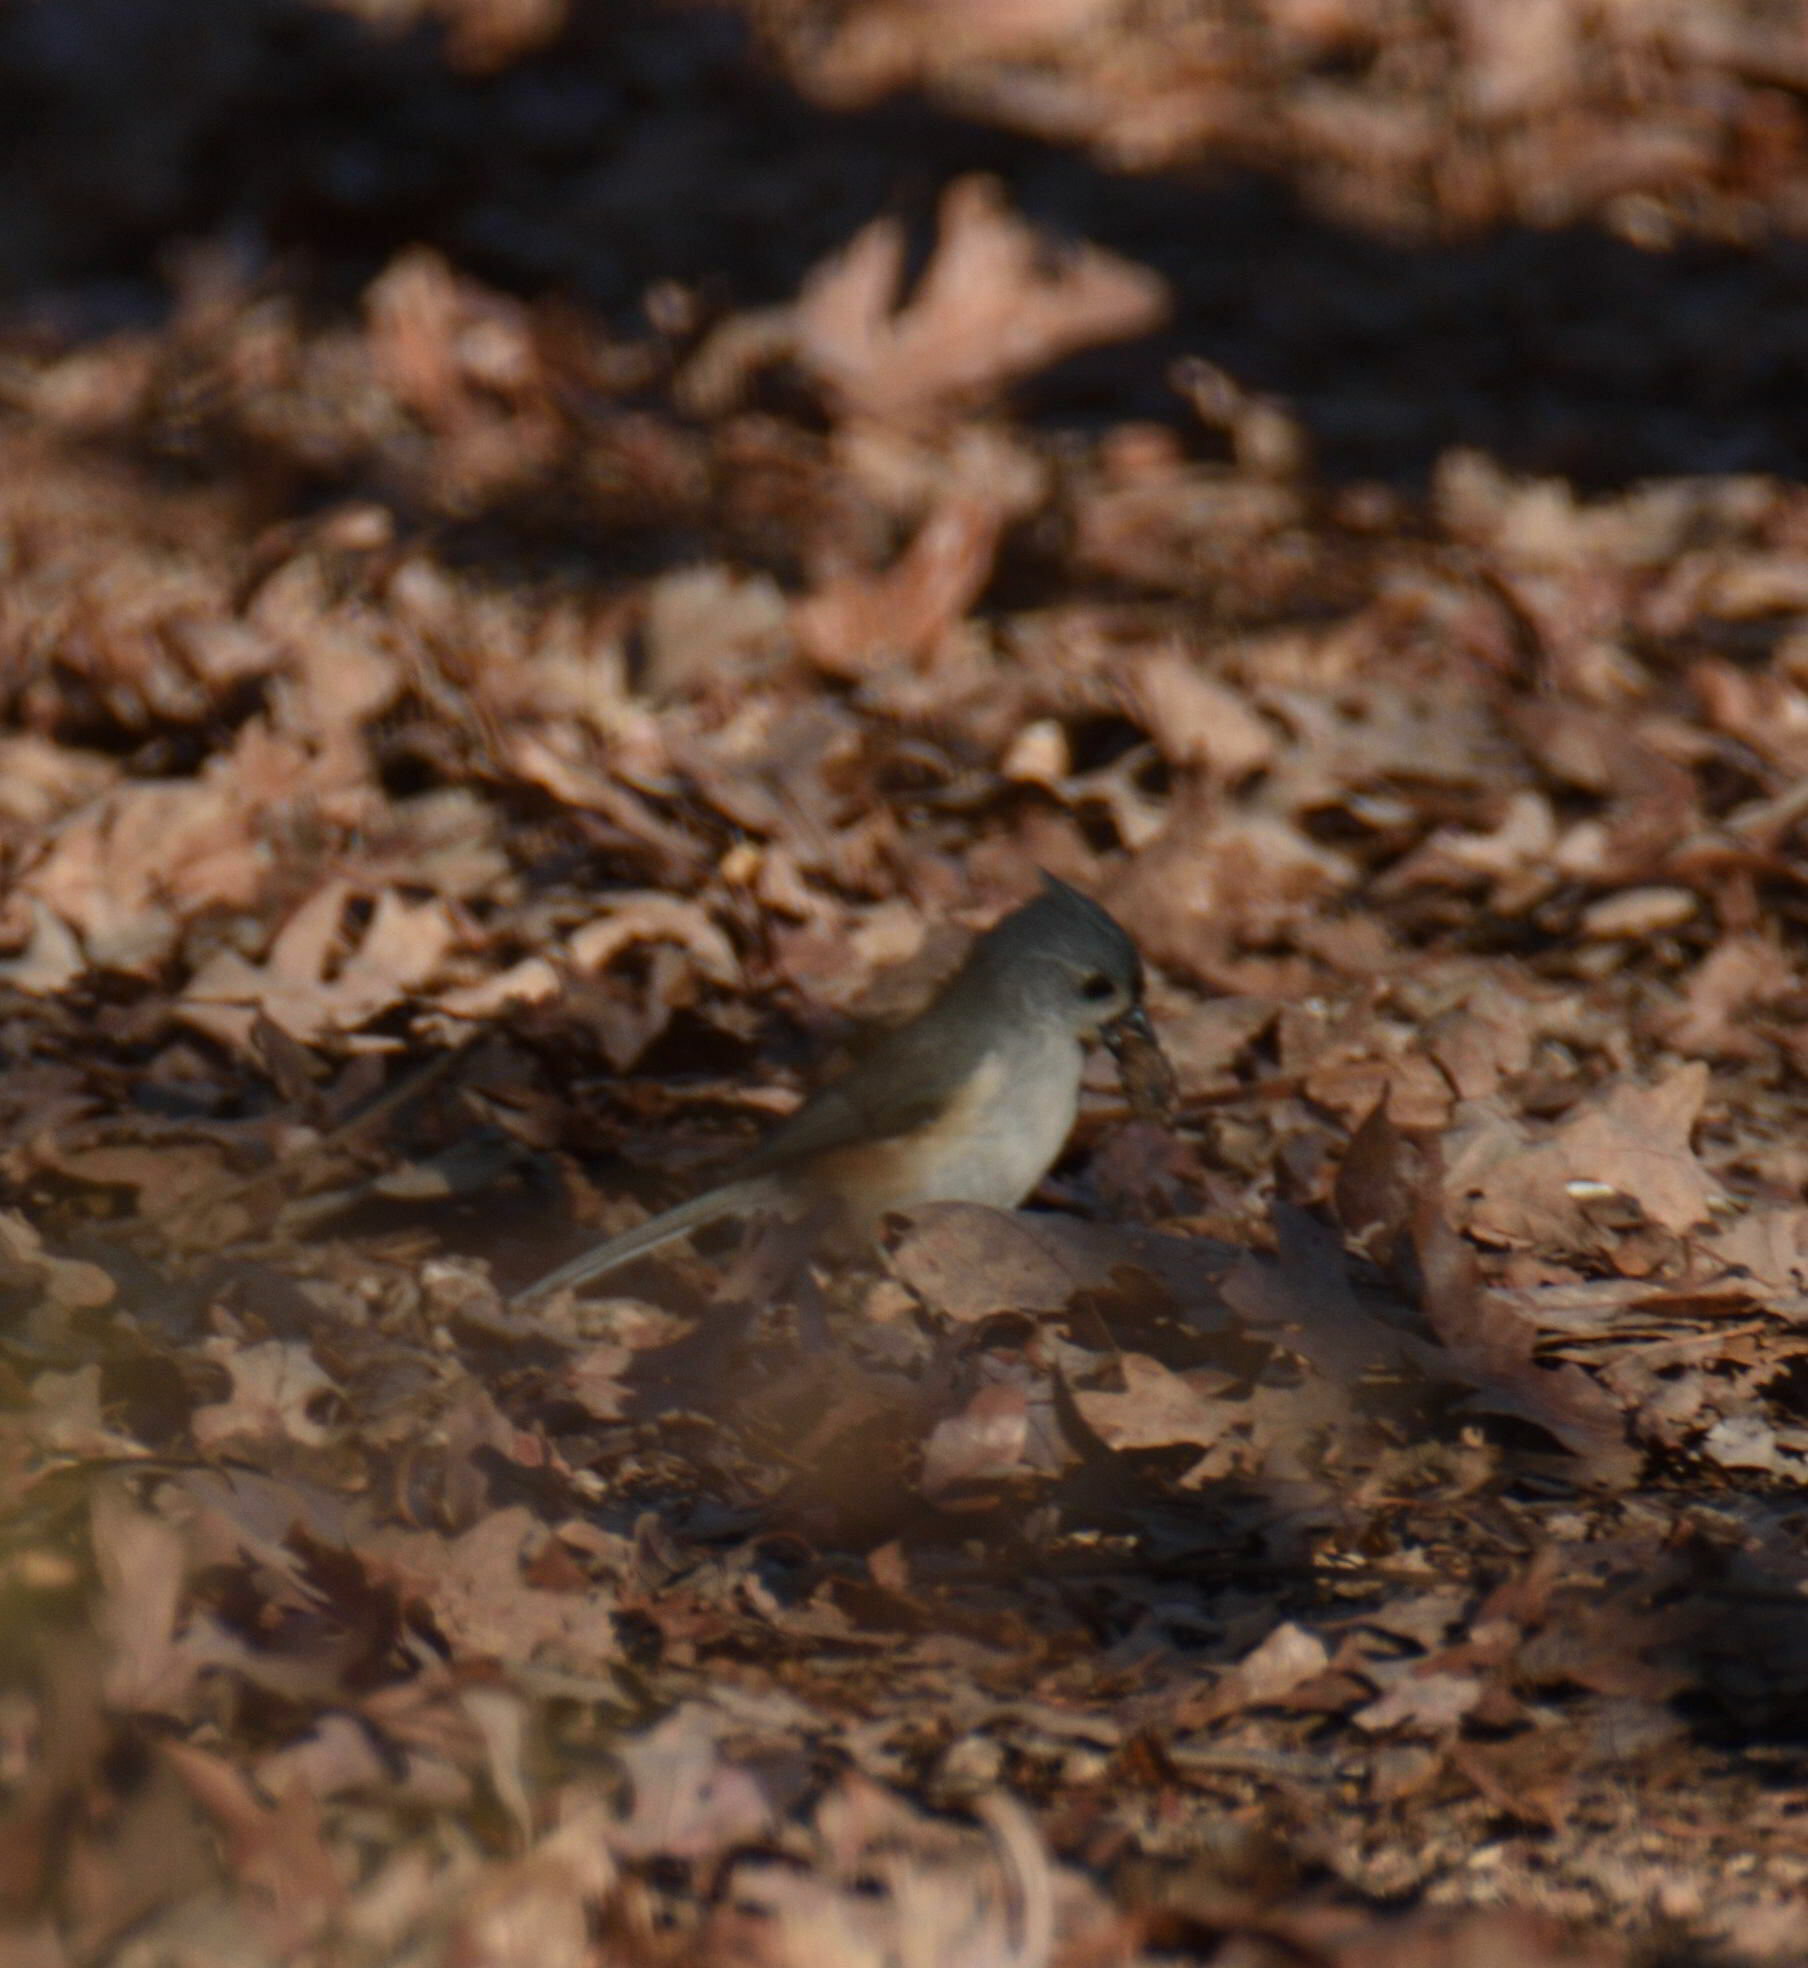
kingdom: Animalia
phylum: Chordata
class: Aves
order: Passeriformes
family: Paridae
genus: Baeolophus
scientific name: Baeolophus bicolor
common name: Tufted titmouse
